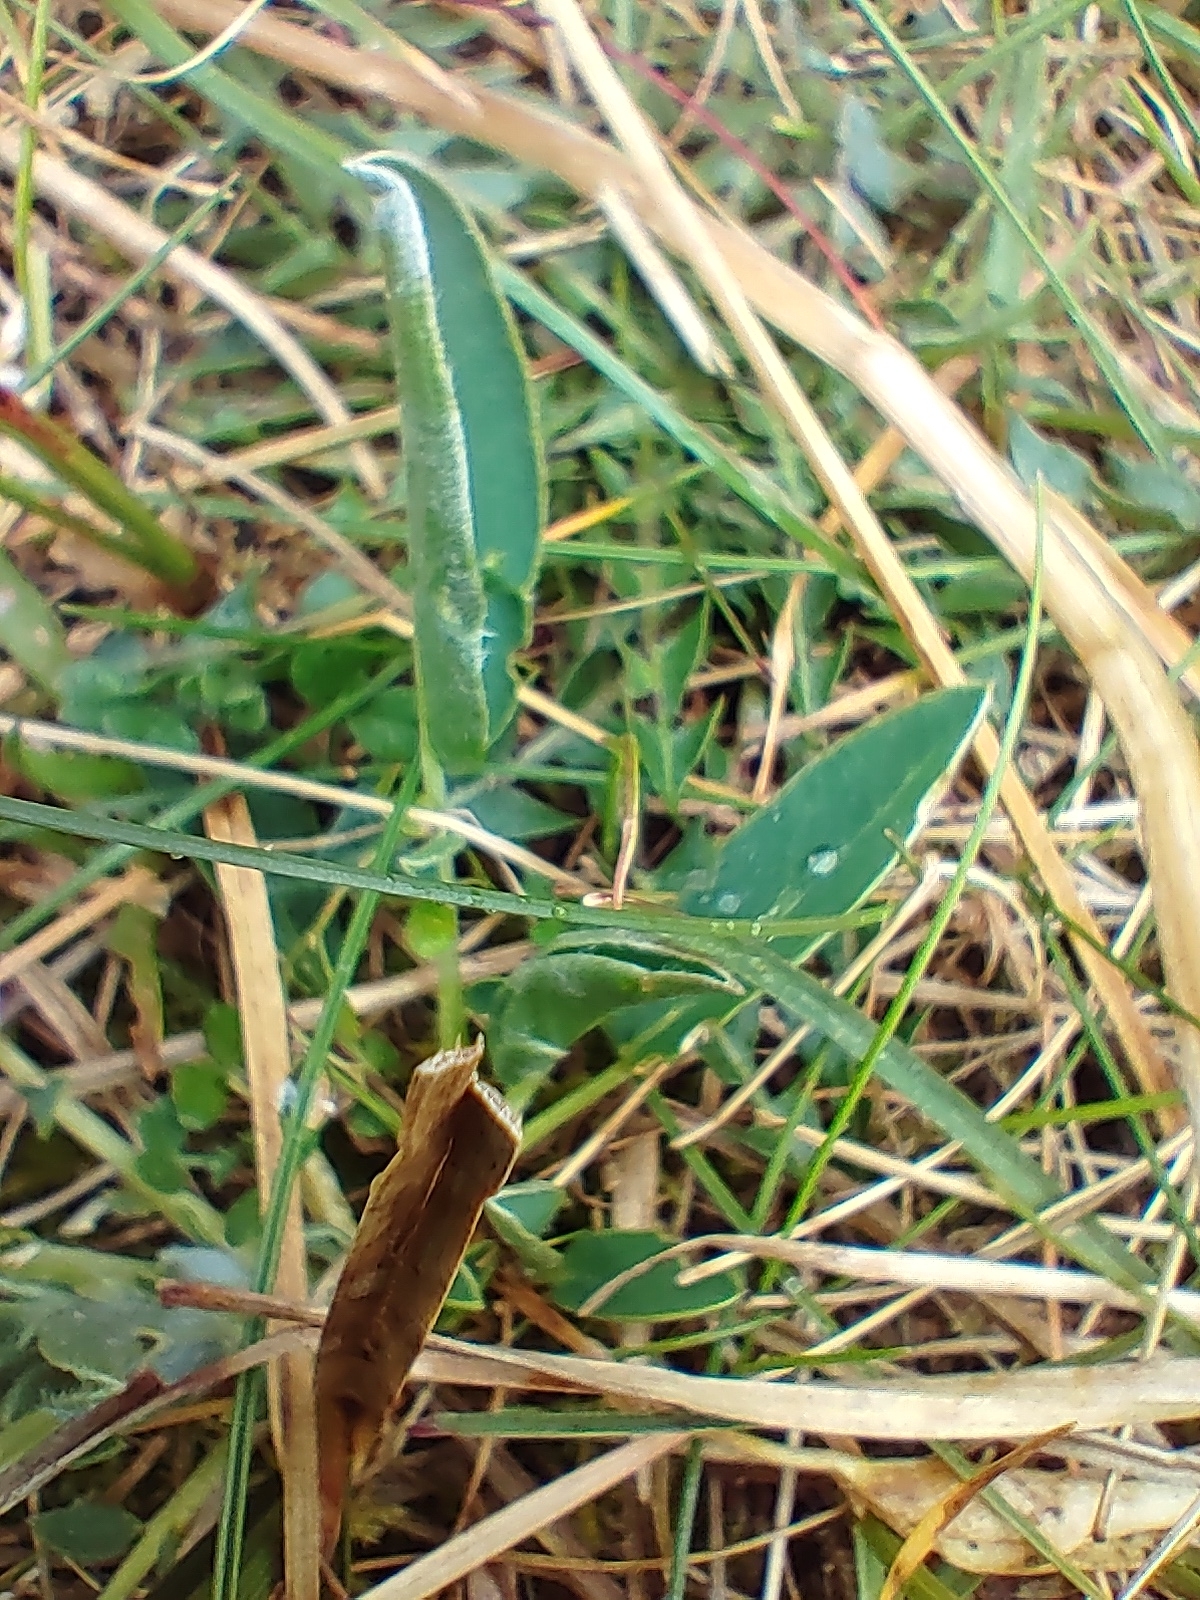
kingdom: Plantae
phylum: Tracheophyta
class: Magnoliopsida
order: Fabales
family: Fabaceae
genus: Anthyllis
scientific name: Anthyllis vulneraria
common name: Kidney vetch
